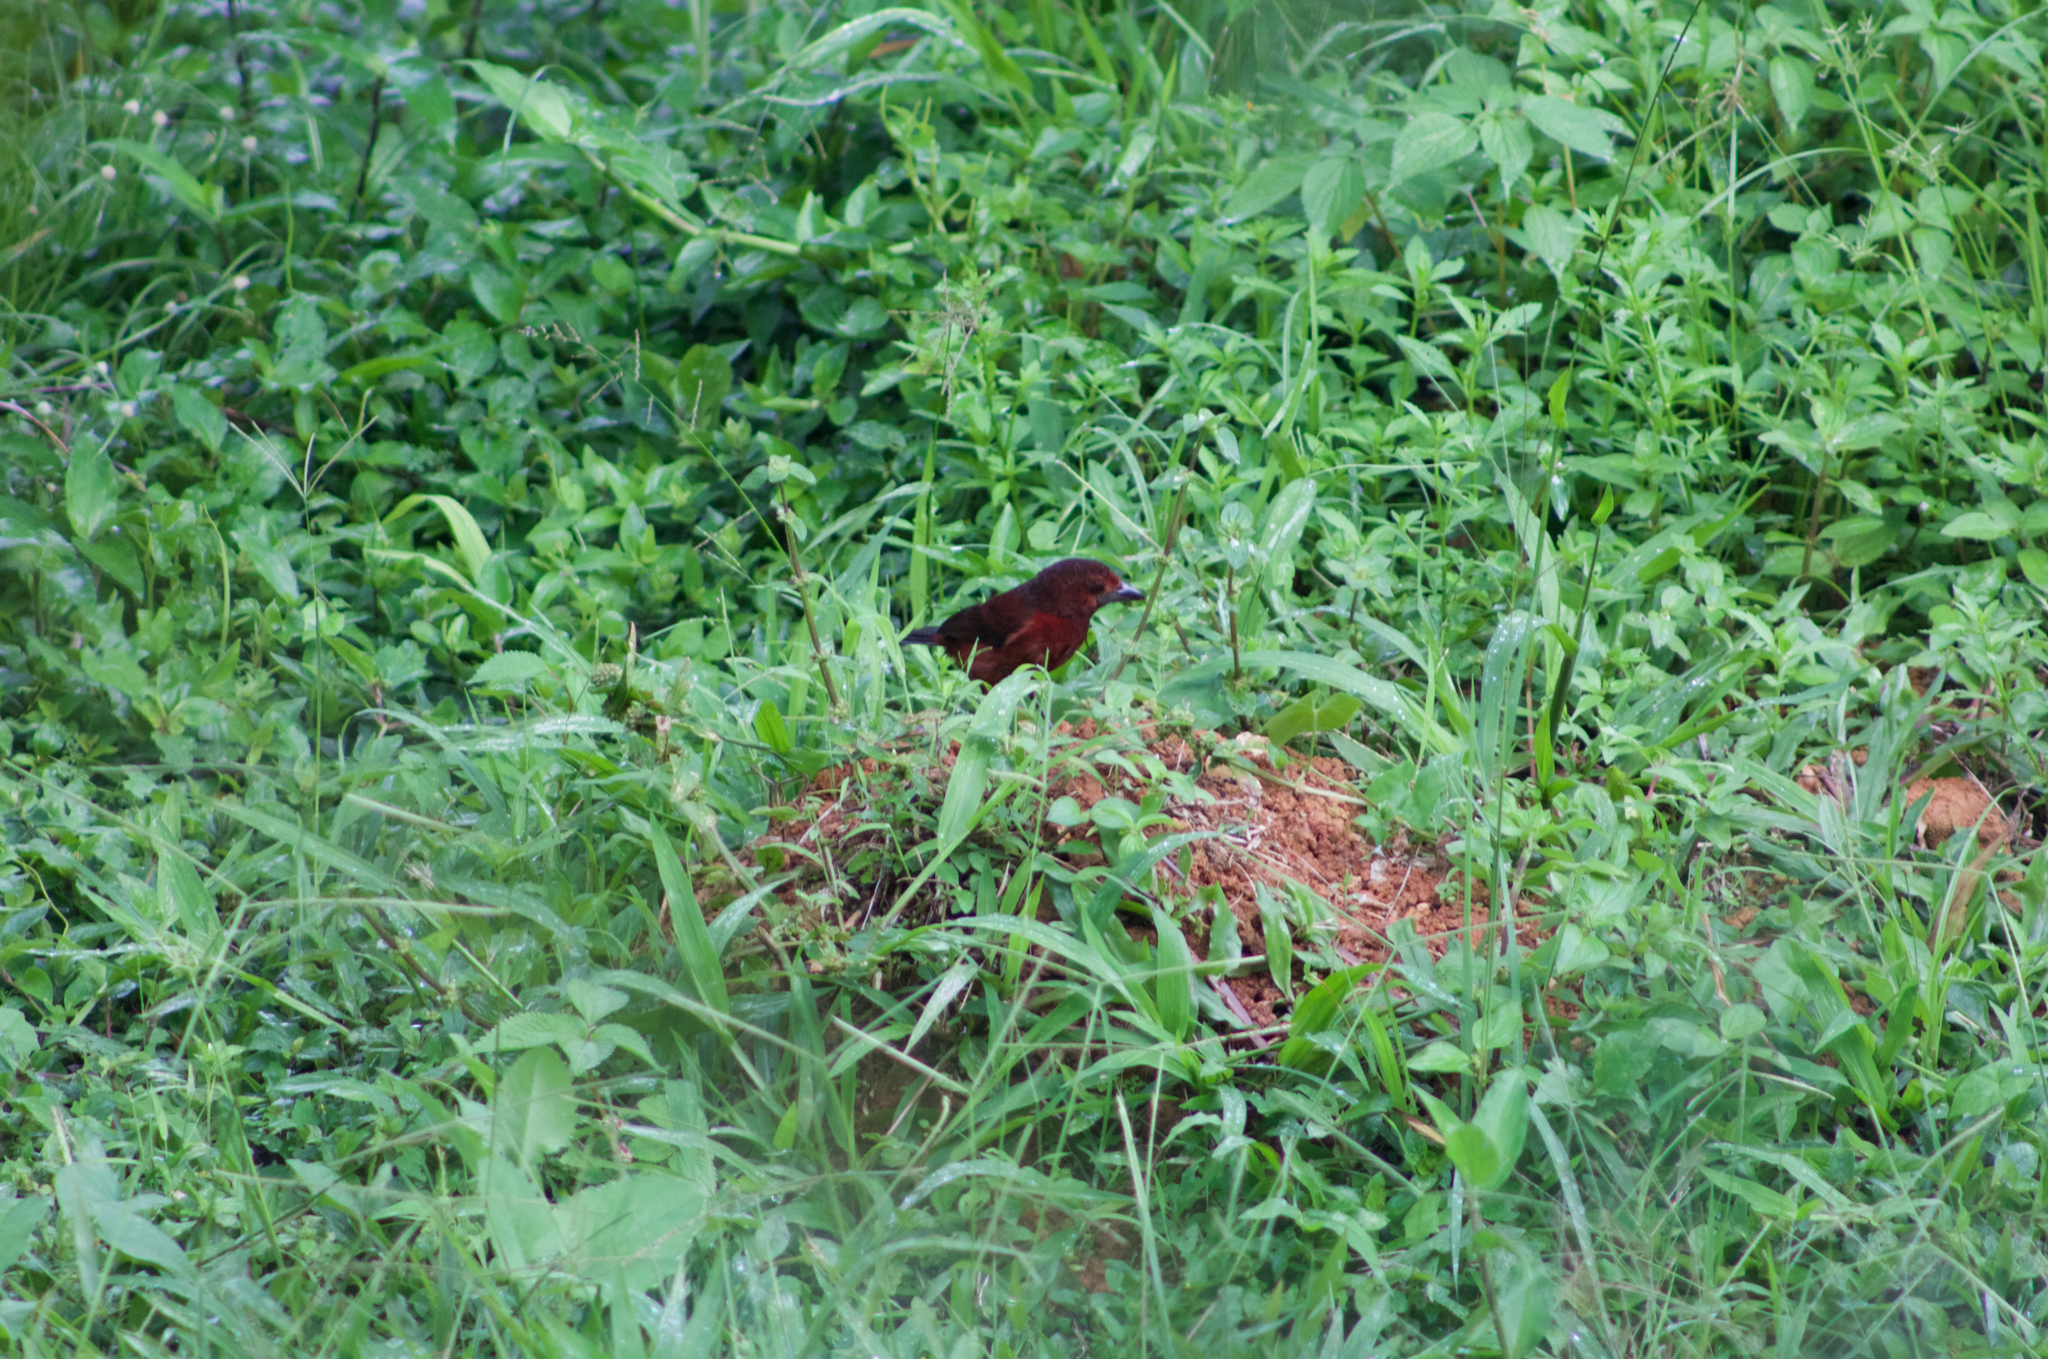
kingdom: Animalia
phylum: Chordata
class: Aves
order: Passeriformes
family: Thraupidae
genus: Ramphocelus
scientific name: Ramphocelus carbo
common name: Silver-beaked tanager
